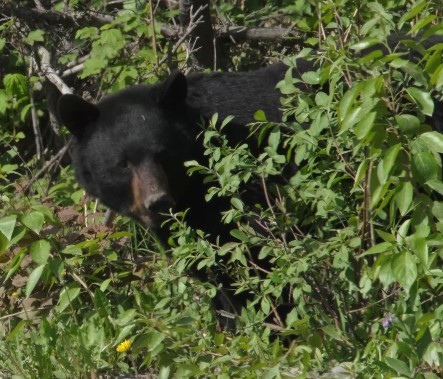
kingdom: Animalia
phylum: Chordata
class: Mammalia
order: Carnivora
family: Ursidae
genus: Ursus
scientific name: Ursus americanus
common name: American black bear
